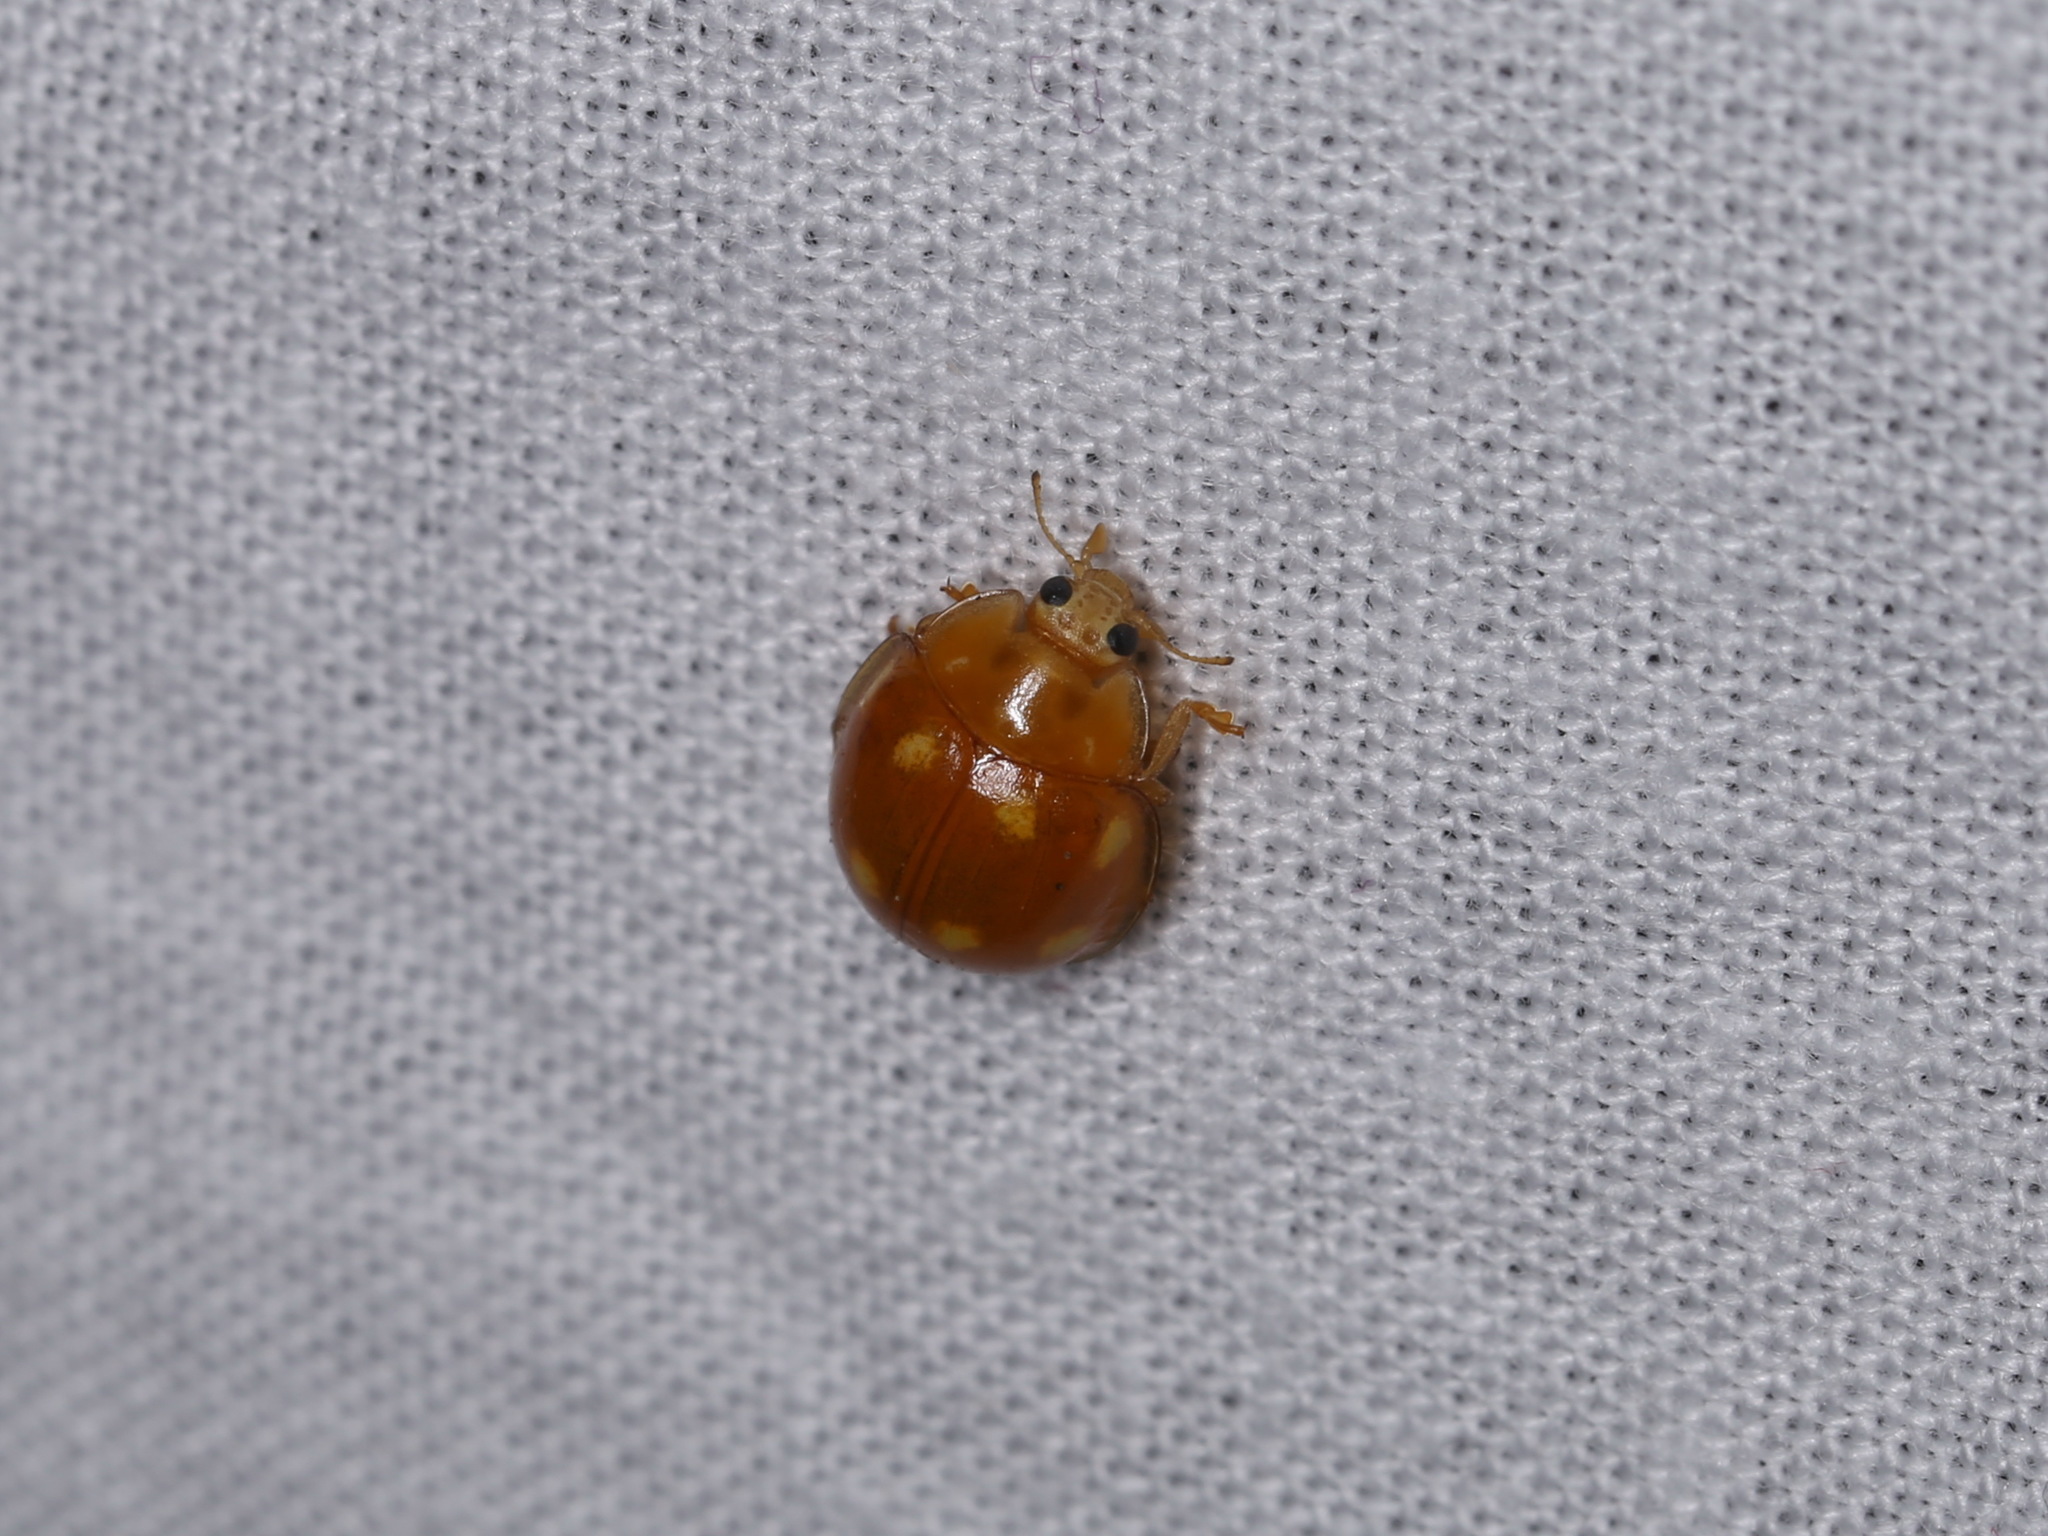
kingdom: Animalia
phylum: Arthropoda
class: Insecta
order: Coleoptera
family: Coccinellidae
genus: Calvia
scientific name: Calvia decemguttata
